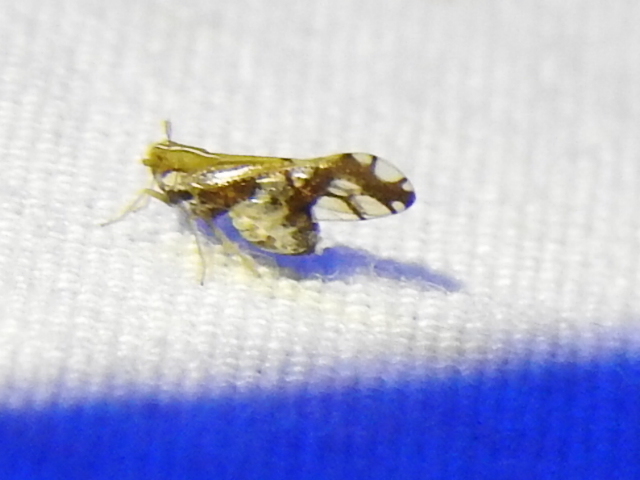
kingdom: Animalia
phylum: Arthropoda
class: Insecta
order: Hemiptera
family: Delphacidae
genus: Liburniella
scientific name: Liburniella ornata
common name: Ornate planthopper
